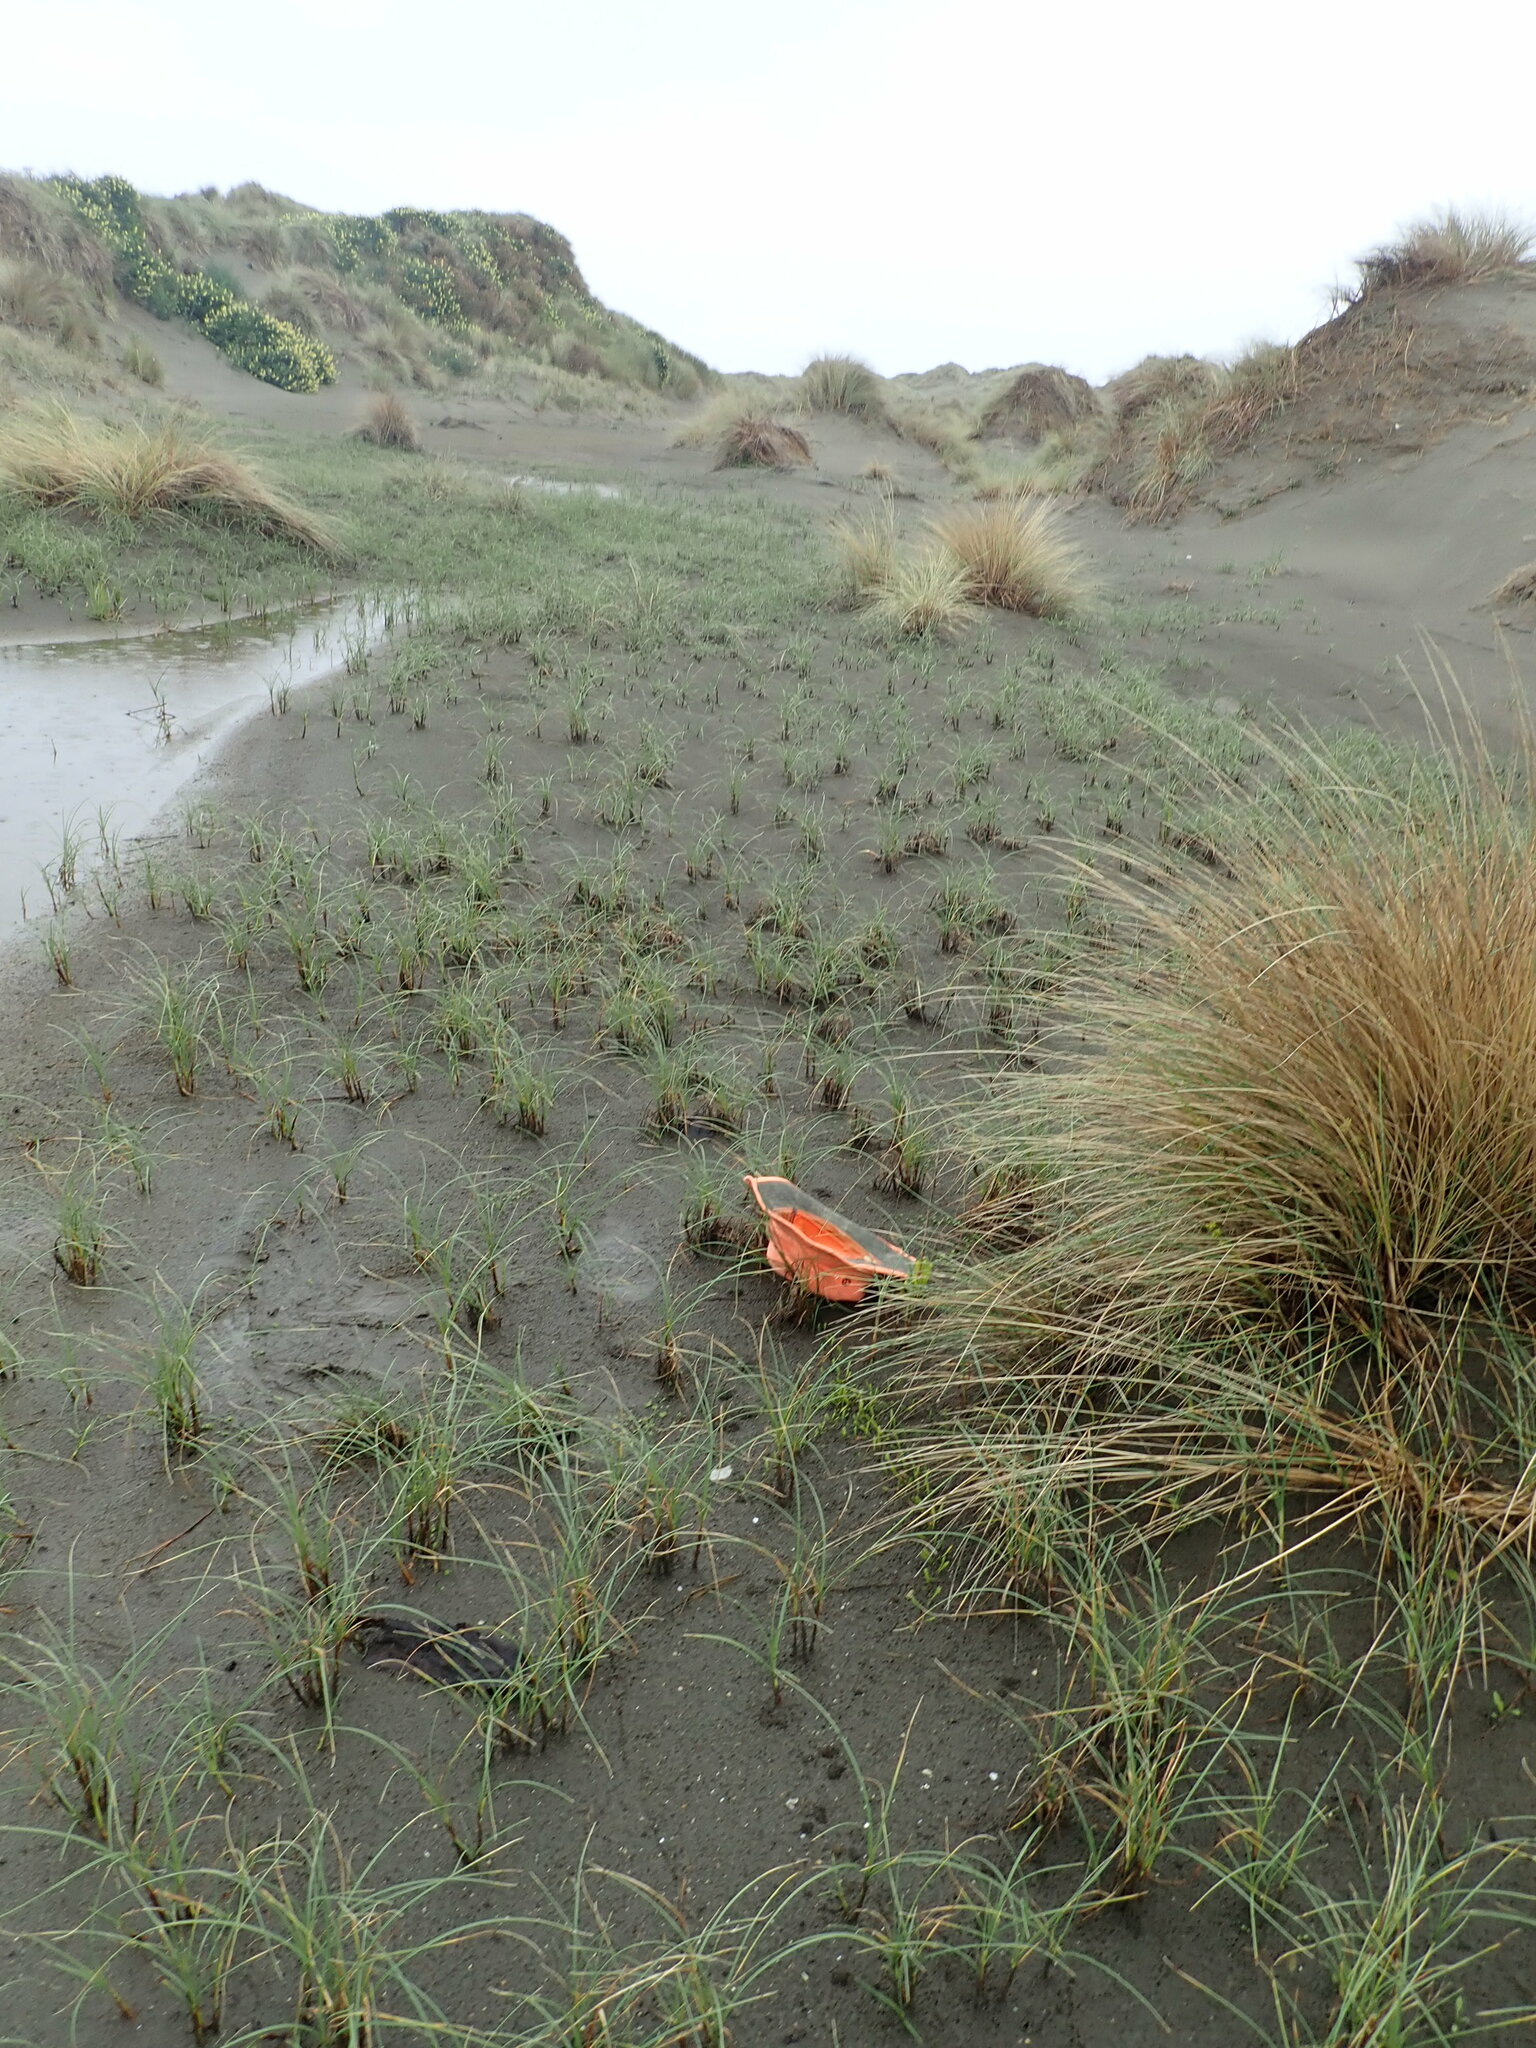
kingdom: Plantae
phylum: Tracheophyta
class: Magnoliopsida
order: Asterales
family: Goodeniaceae
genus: Goodenia
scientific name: Goodenia radicans
